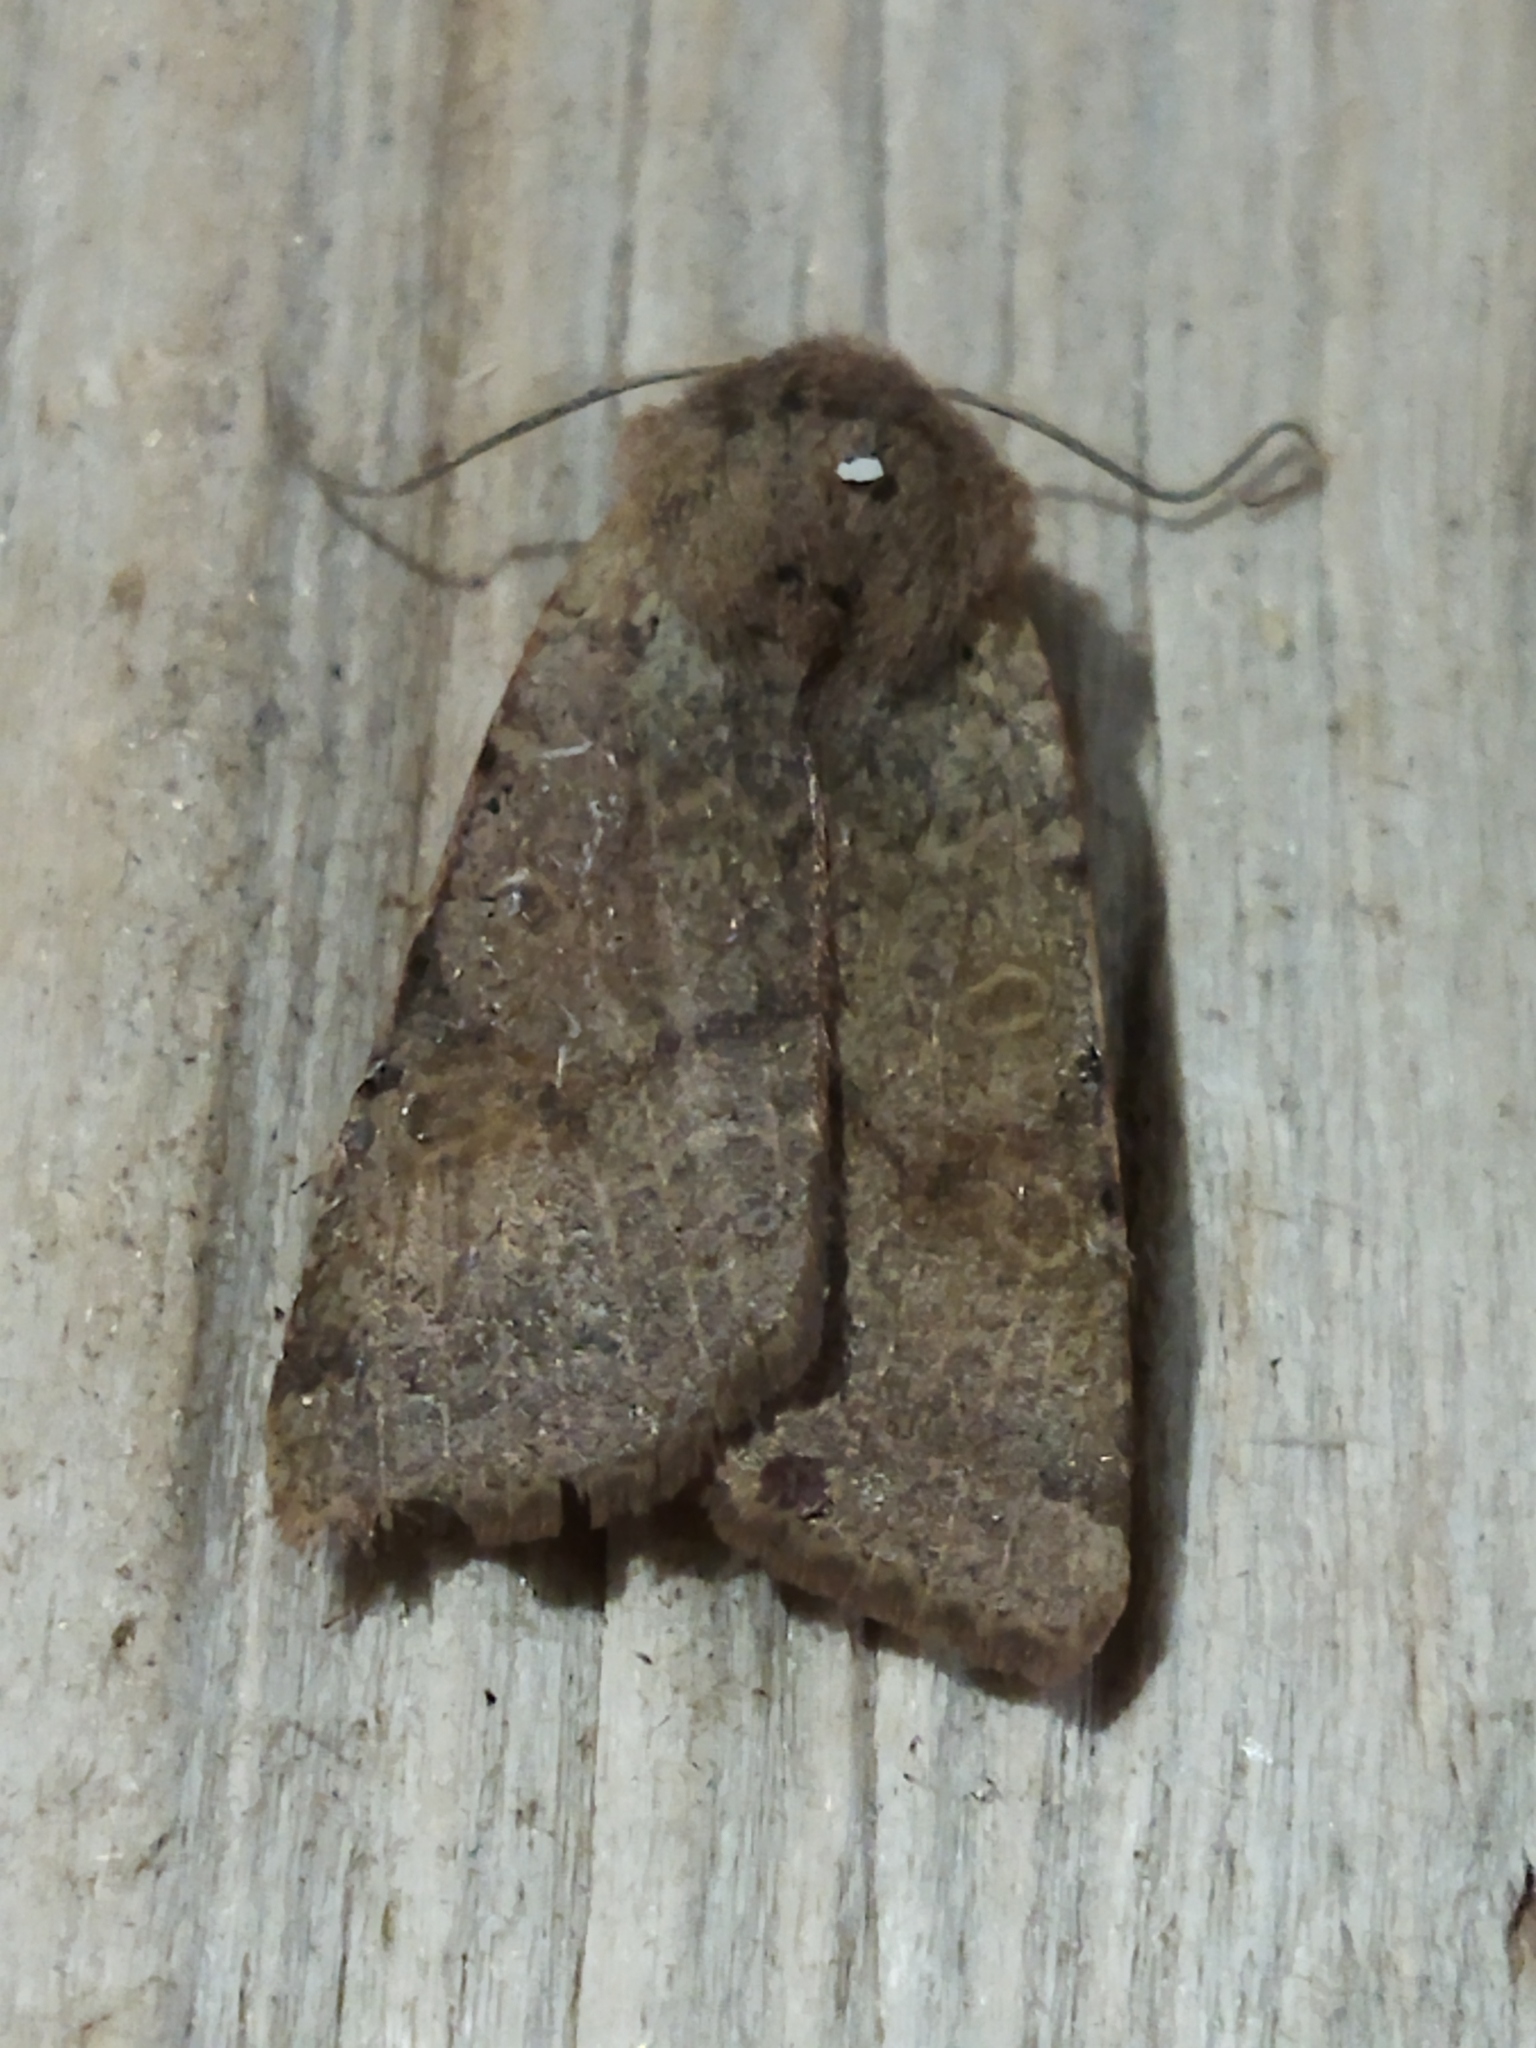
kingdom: Animalia
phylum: Arthropoda
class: Insecta
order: Lepidoptera
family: Noctuidae
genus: Agrochola
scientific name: Agrochola lychnidis
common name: Beaded chestnut
